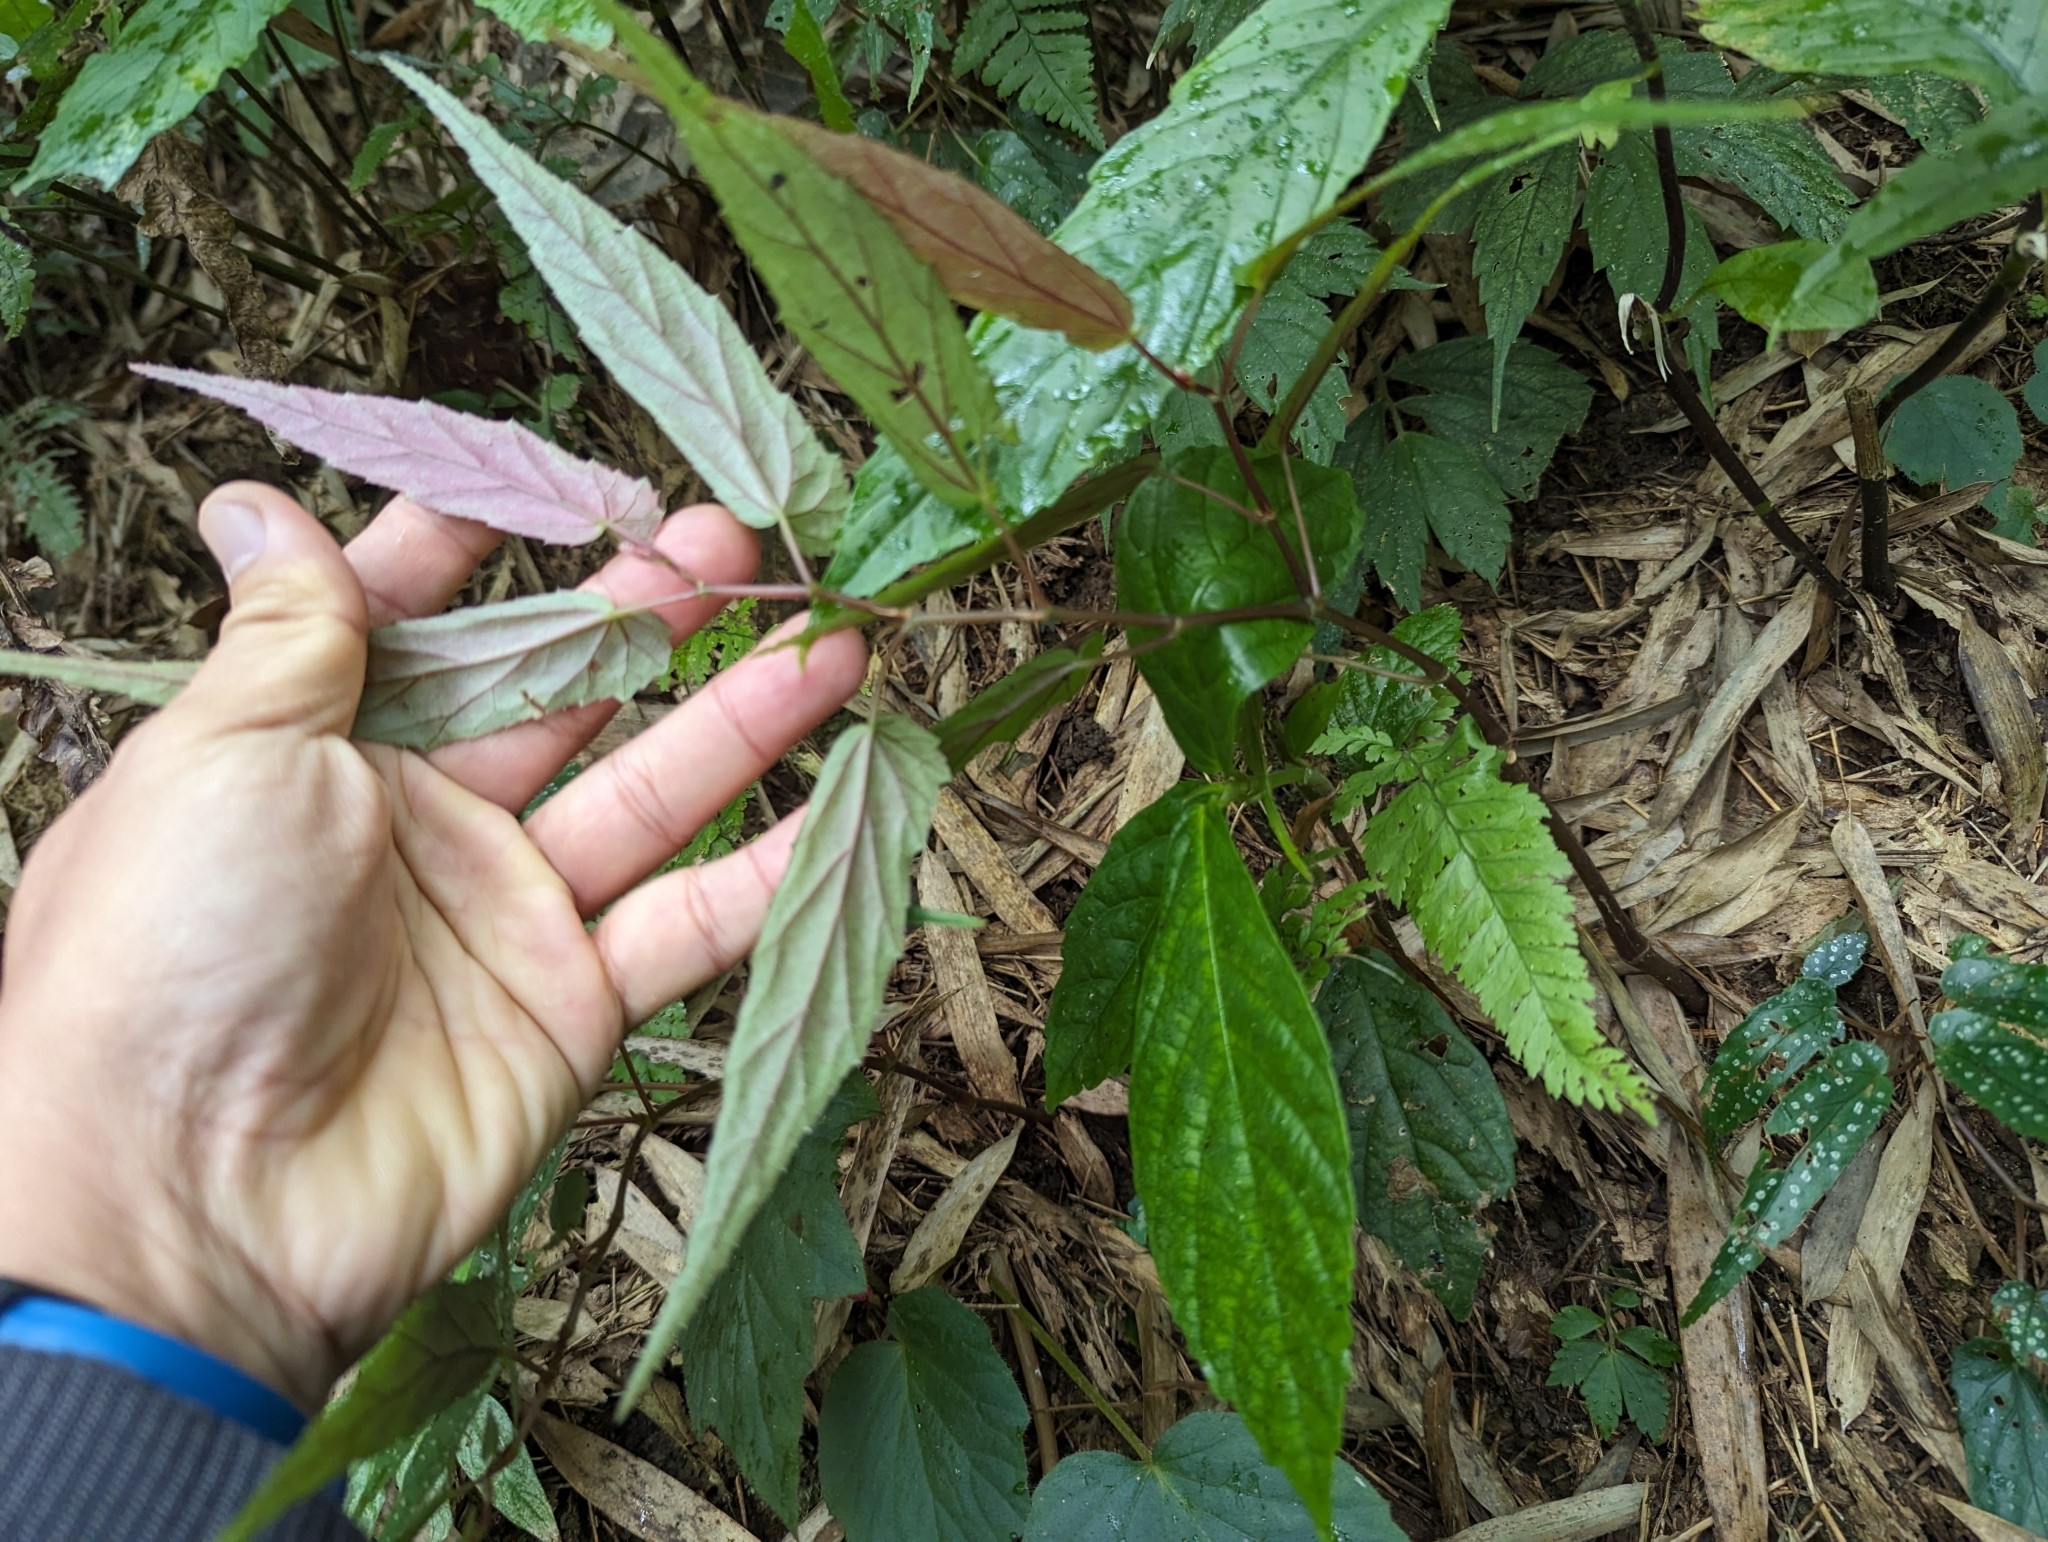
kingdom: Plantae
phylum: Tracheophyta
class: Magnoliopsida
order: Cucurbitales
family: Begoniaceae
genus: Begonia
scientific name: Begonia taiwaniana
